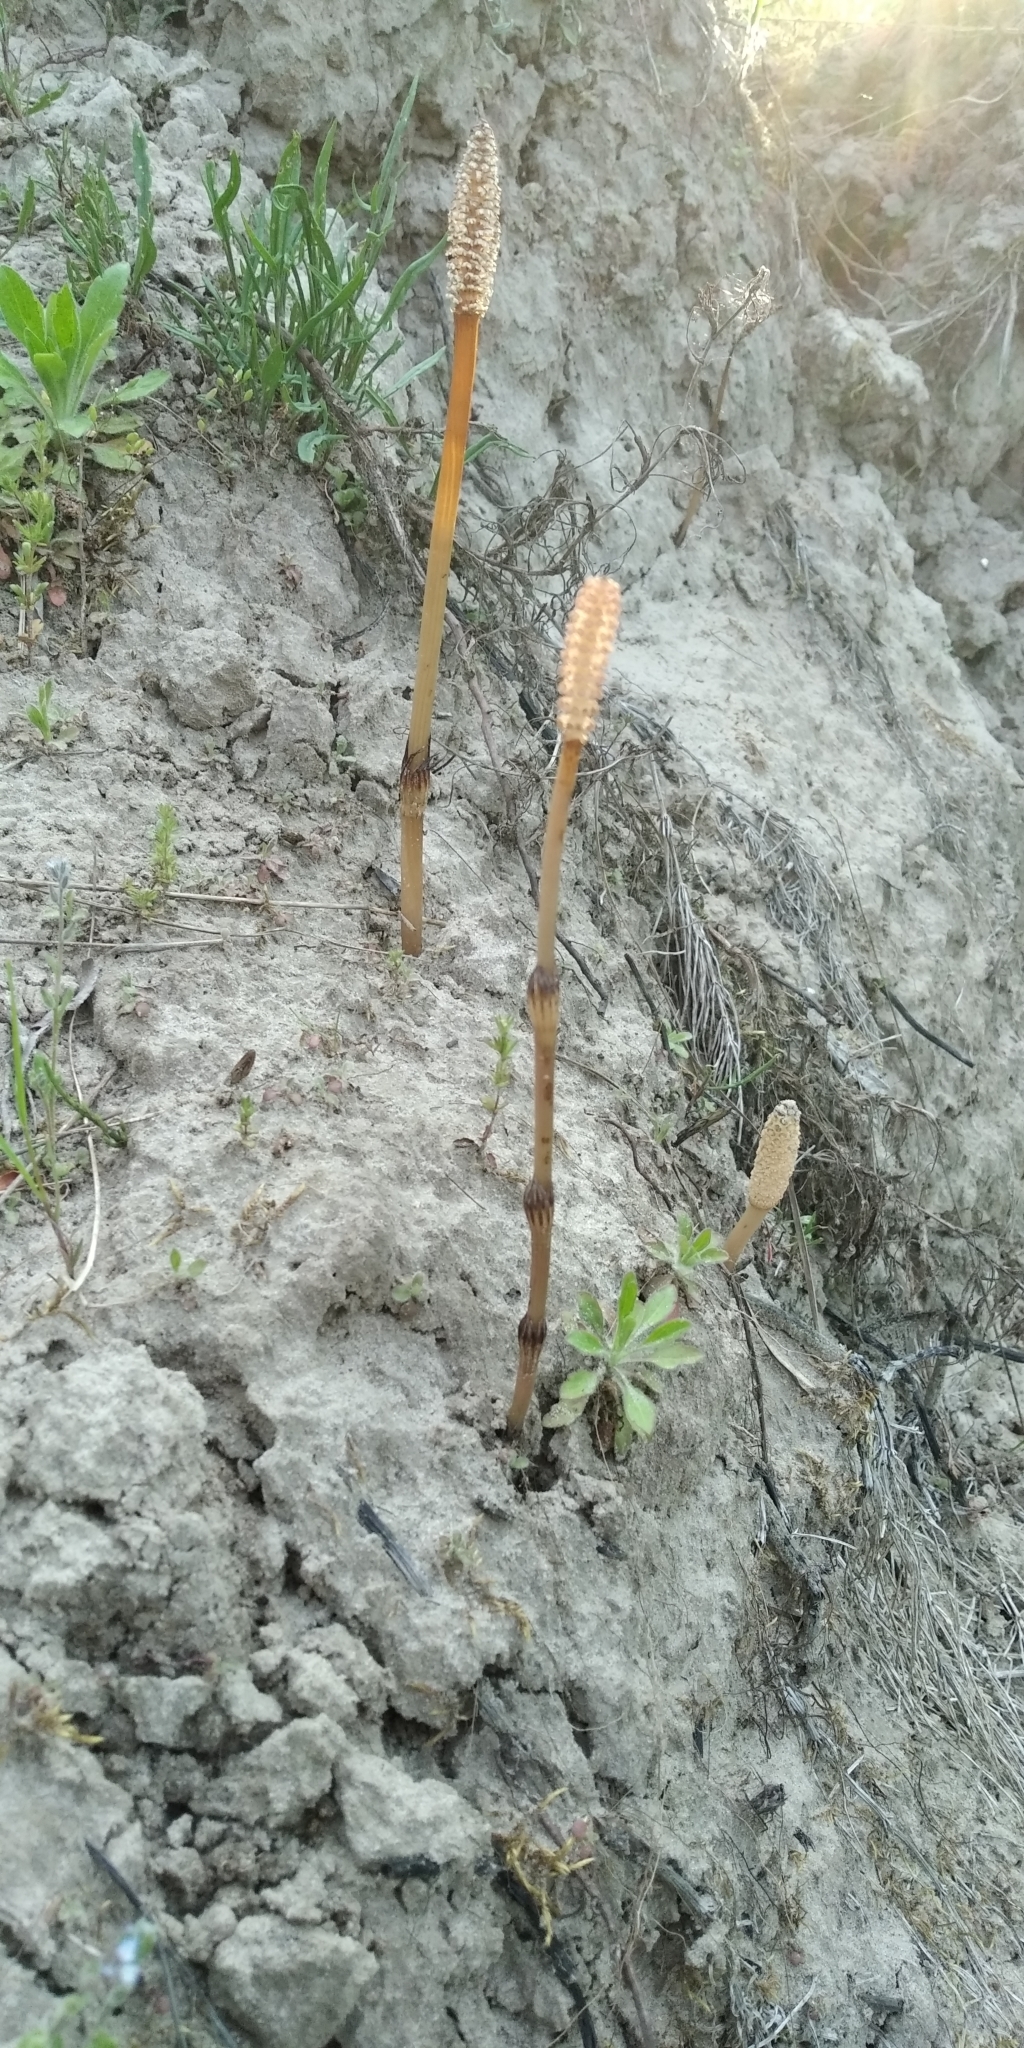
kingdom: Plantae
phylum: Tracheophyta
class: Polypodiopsida
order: Equisetales
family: Equisetaceae
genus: Equisetum
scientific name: Equisetum arvense
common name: Field horsetail
